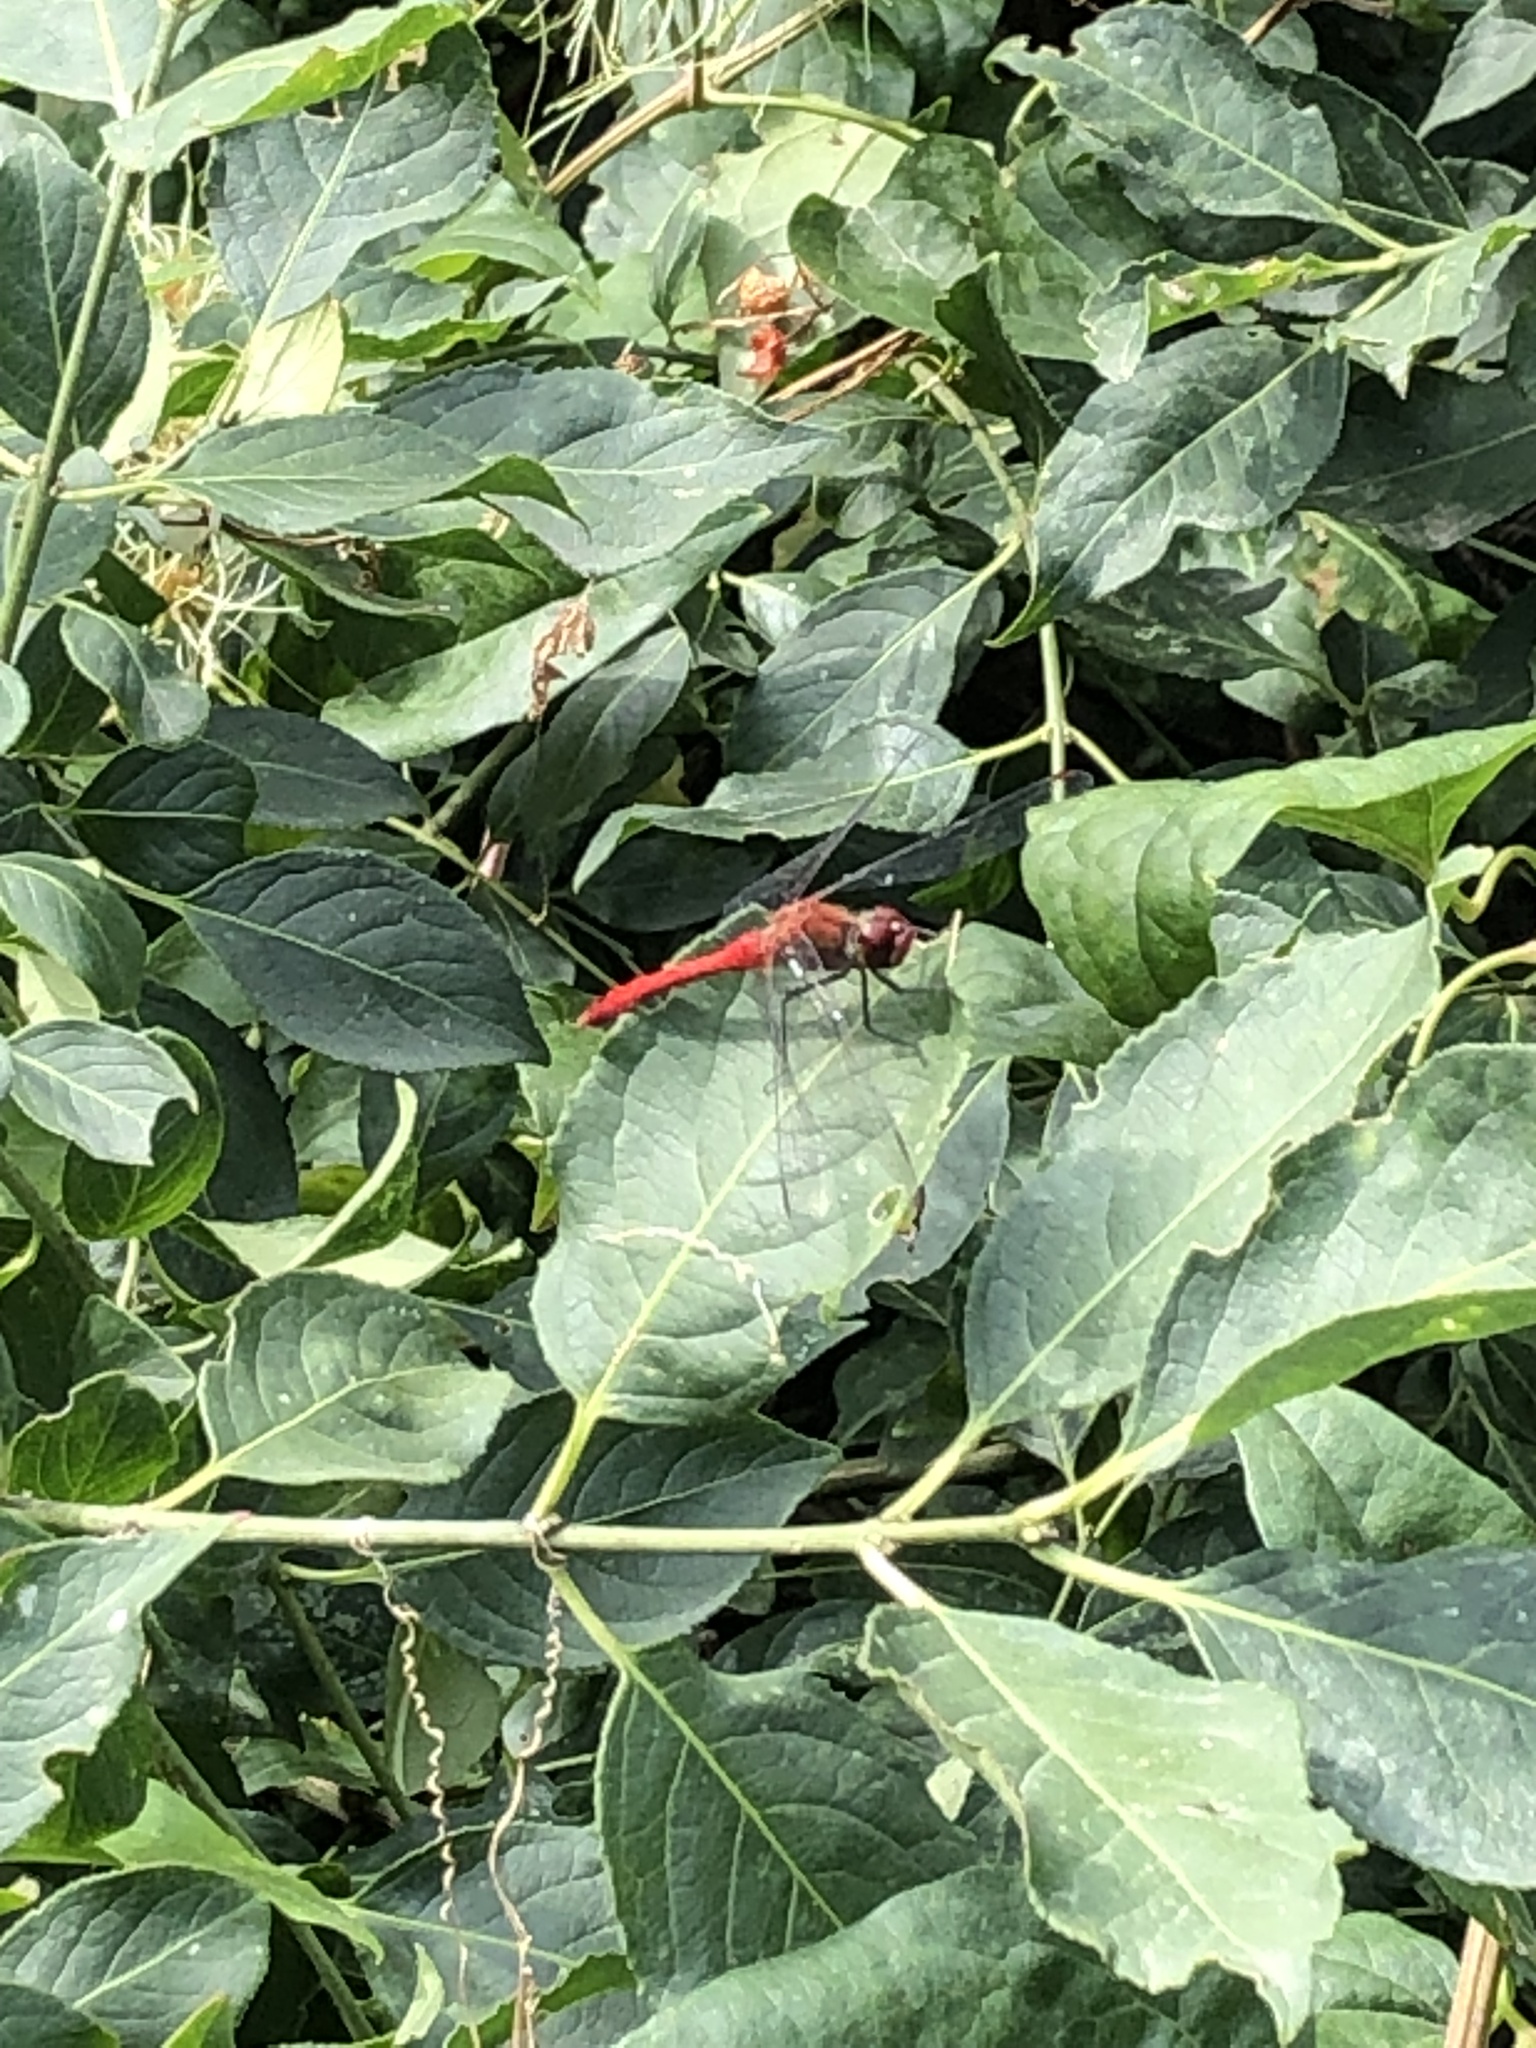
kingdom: Animalia
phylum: Arthropoda
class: Insecta
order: Odonata
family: Libellulidae
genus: Sympetrum
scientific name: Sympetrum sanguineum
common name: Ruddy darter
